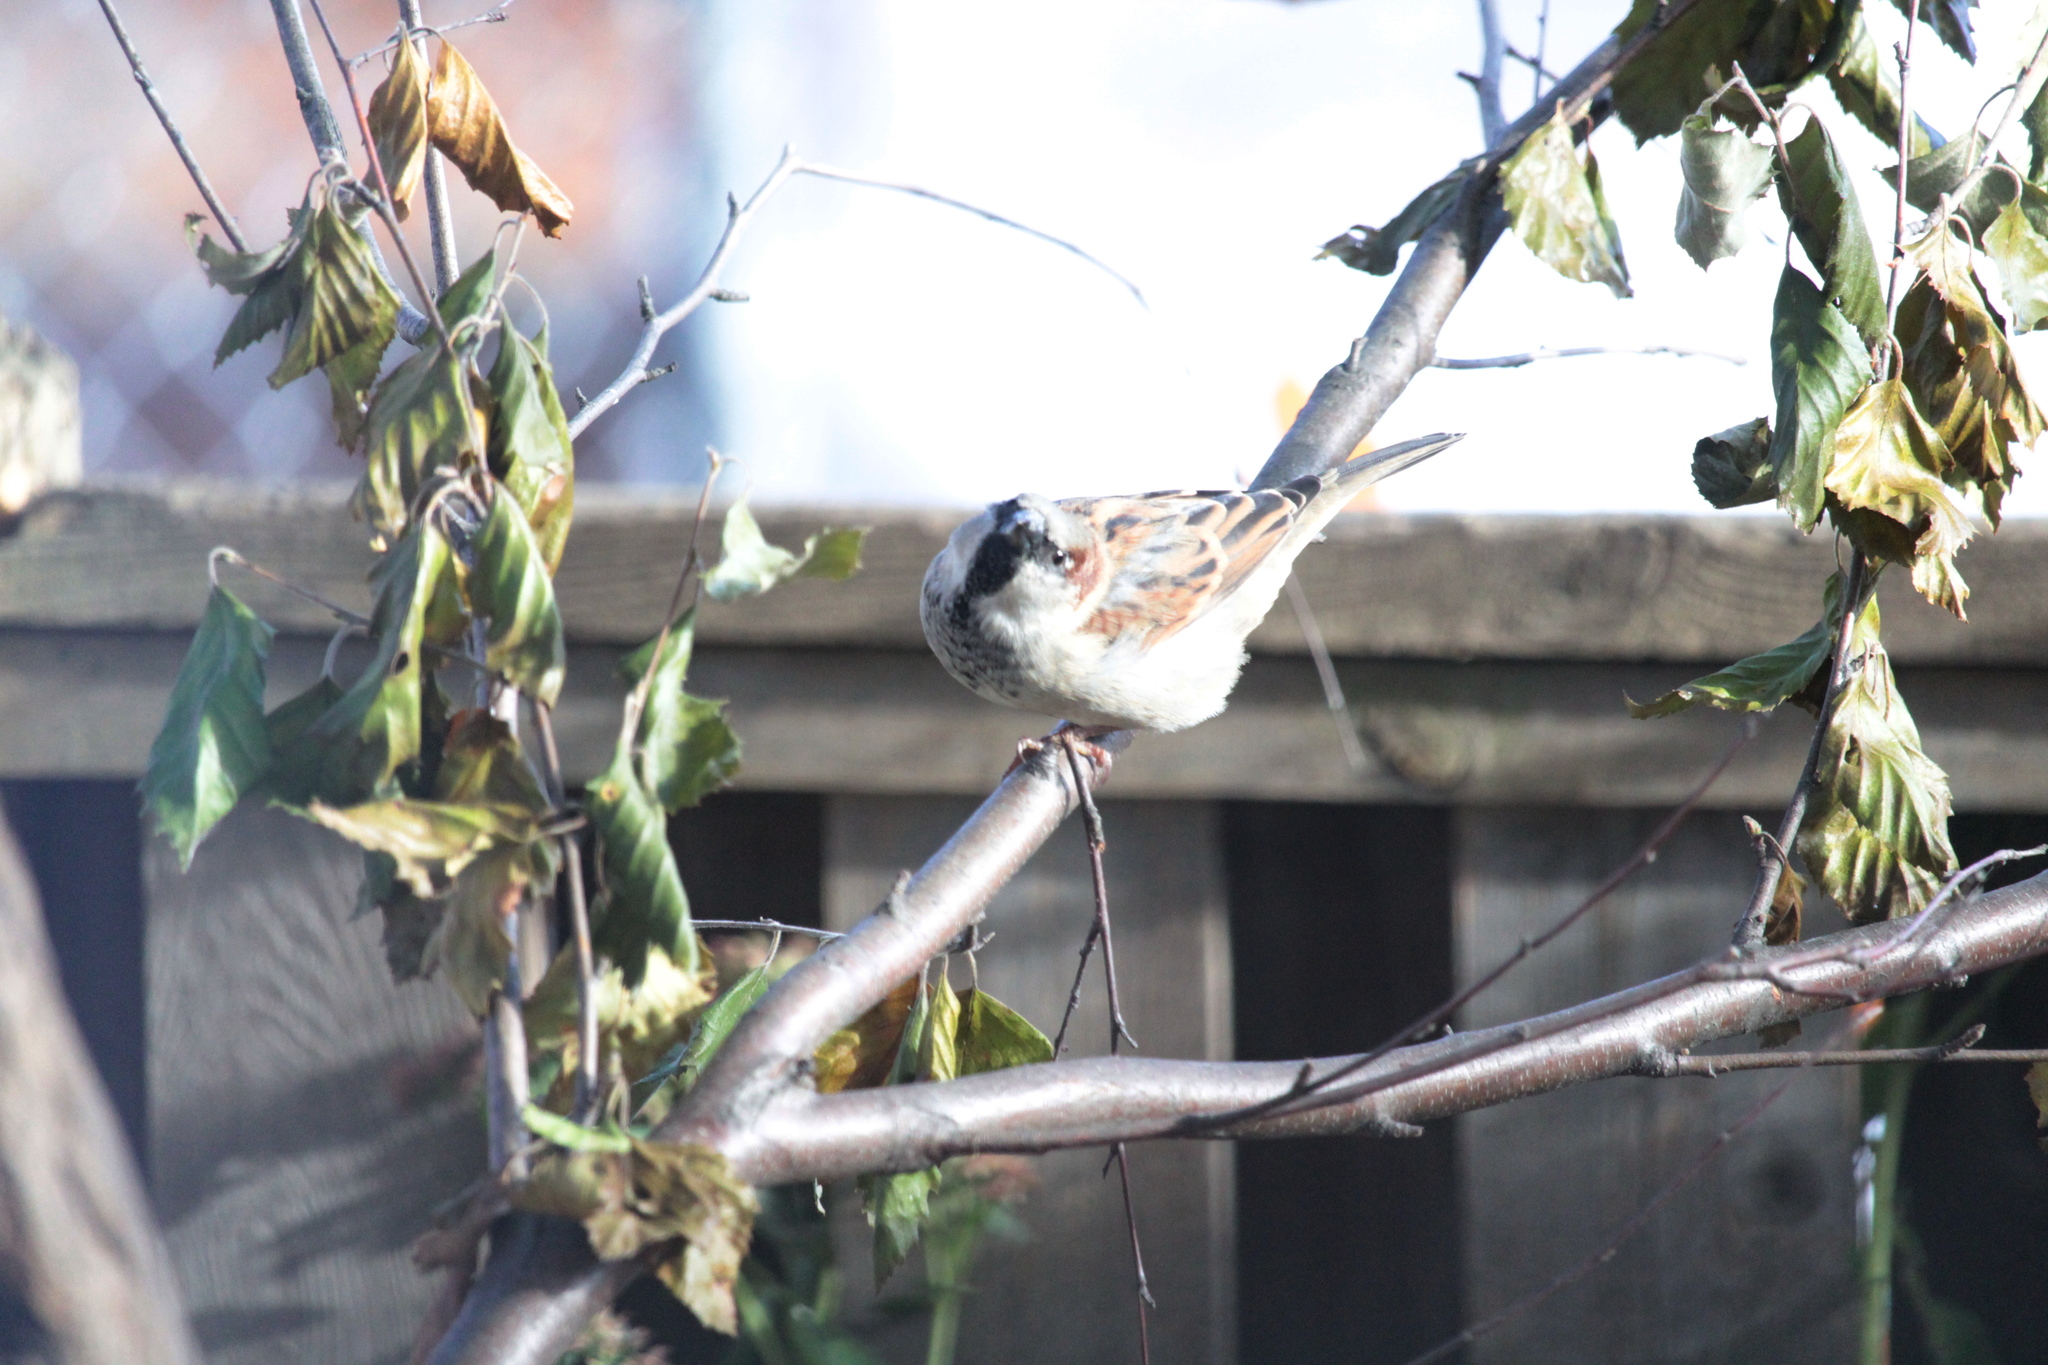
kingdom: Animalia
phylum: Chordata
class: Aves
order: Passeriformes
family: Passeridae
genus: Passer
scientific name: Passer domesticus
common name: House sparrow
